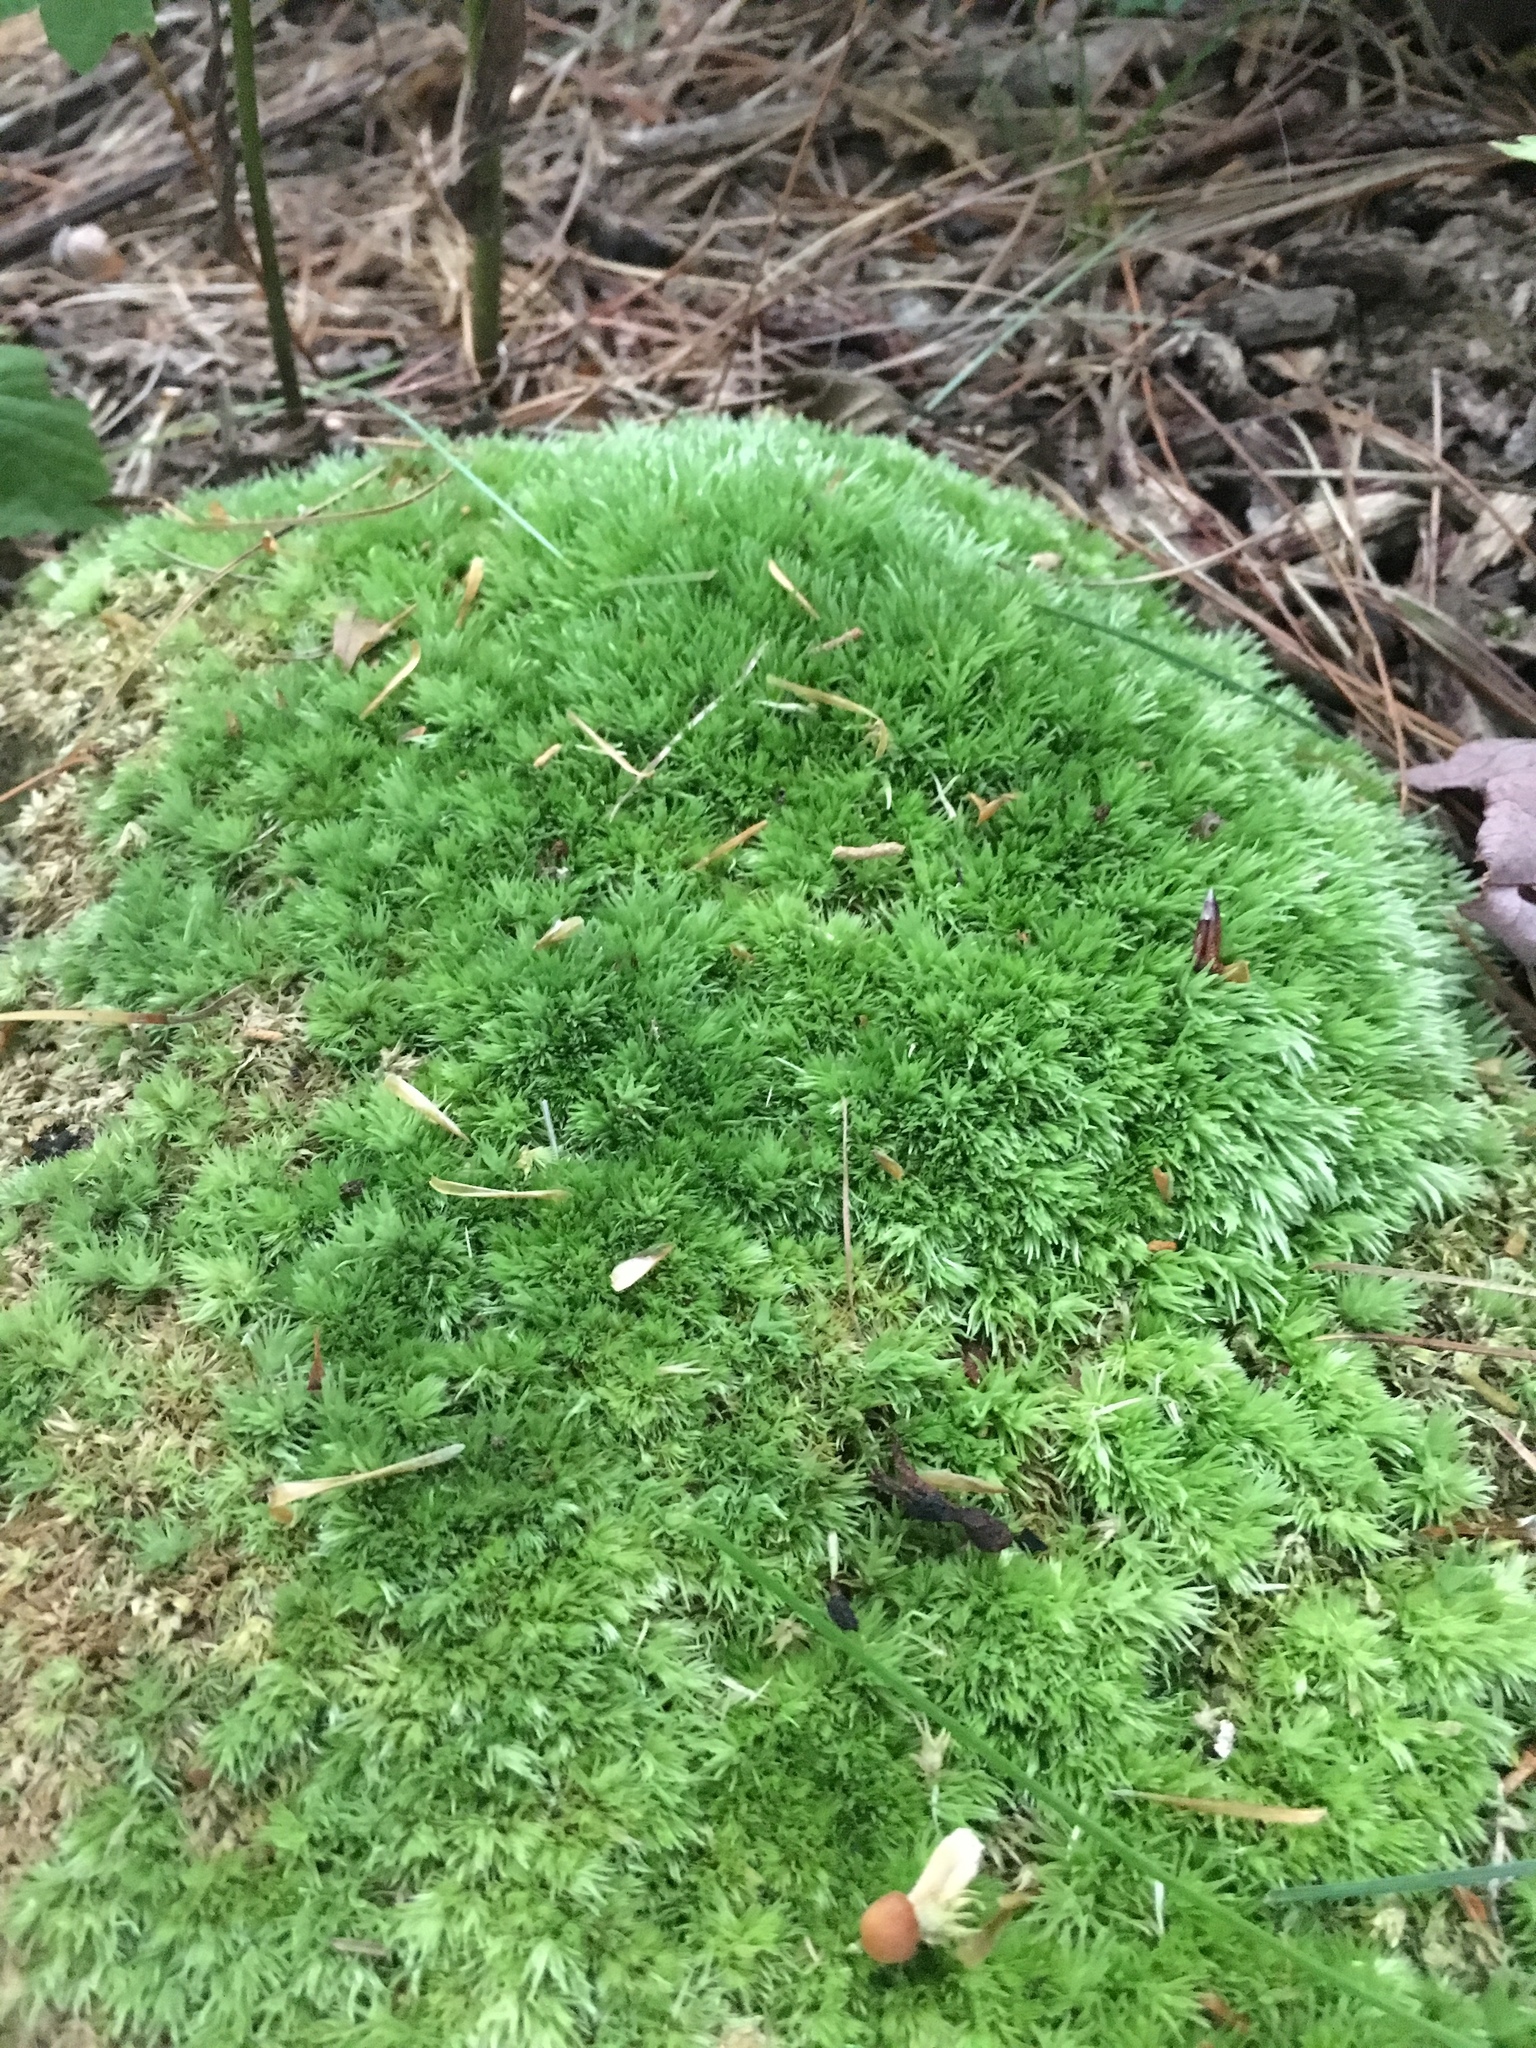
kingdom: Plantae
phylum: Bryophyta
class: Bryopsida
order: Dicranales
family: Leucobryaceae
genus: Leucobryum
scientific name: Leucobryum glaucum
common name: Large white-moss
